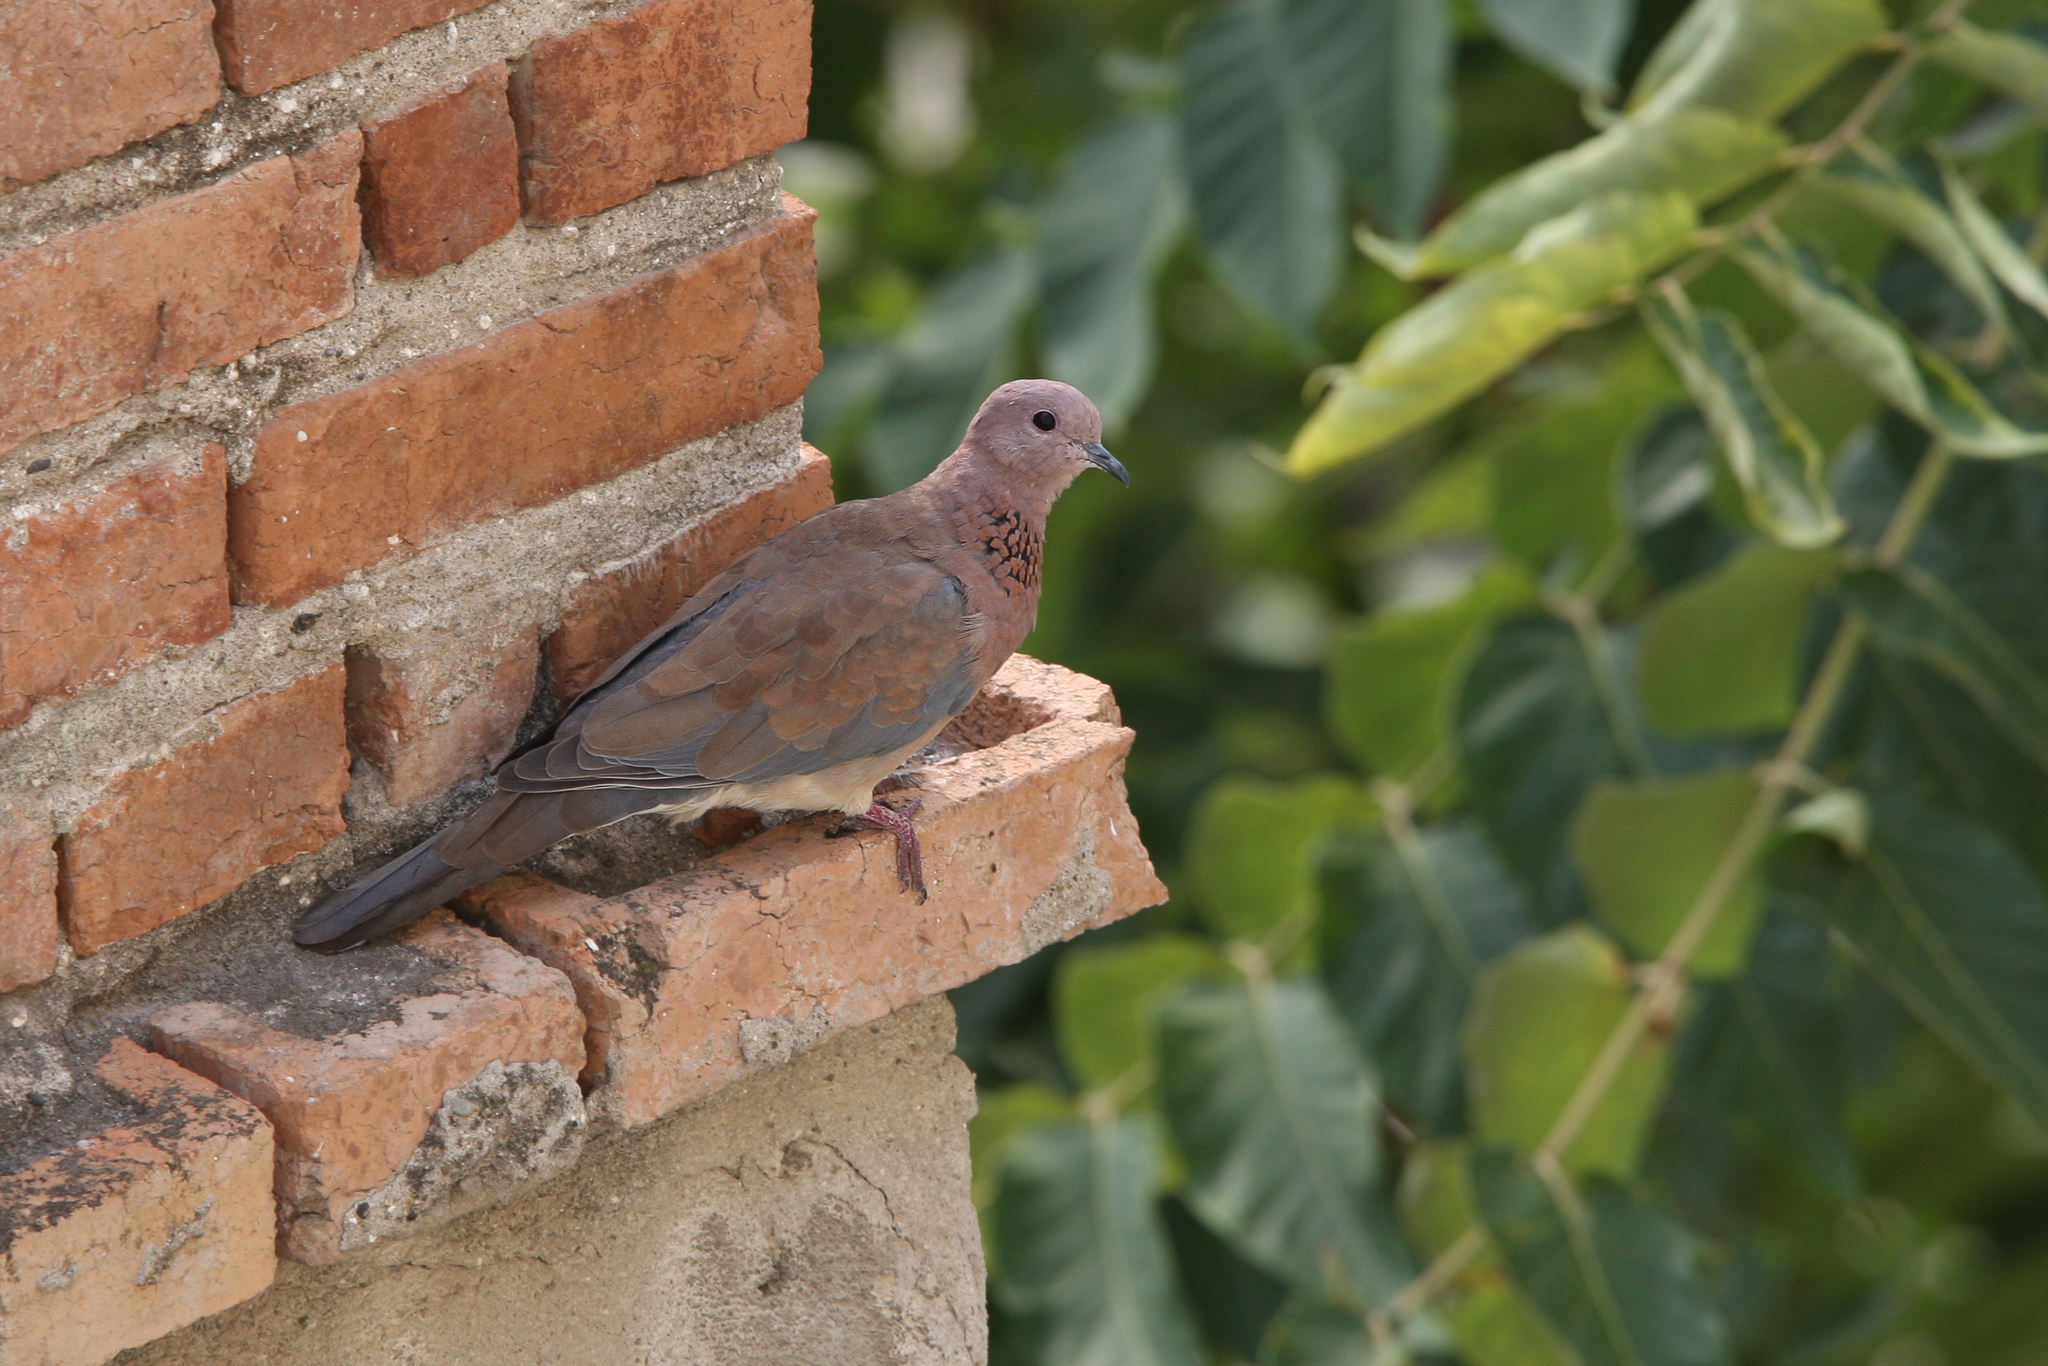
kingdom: Animalia
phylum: Chordata
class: Aves
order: Columbiformes
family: Columbidae
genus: Spilopelia
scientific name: Spilopelia senegalensis
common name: Laughing dove
